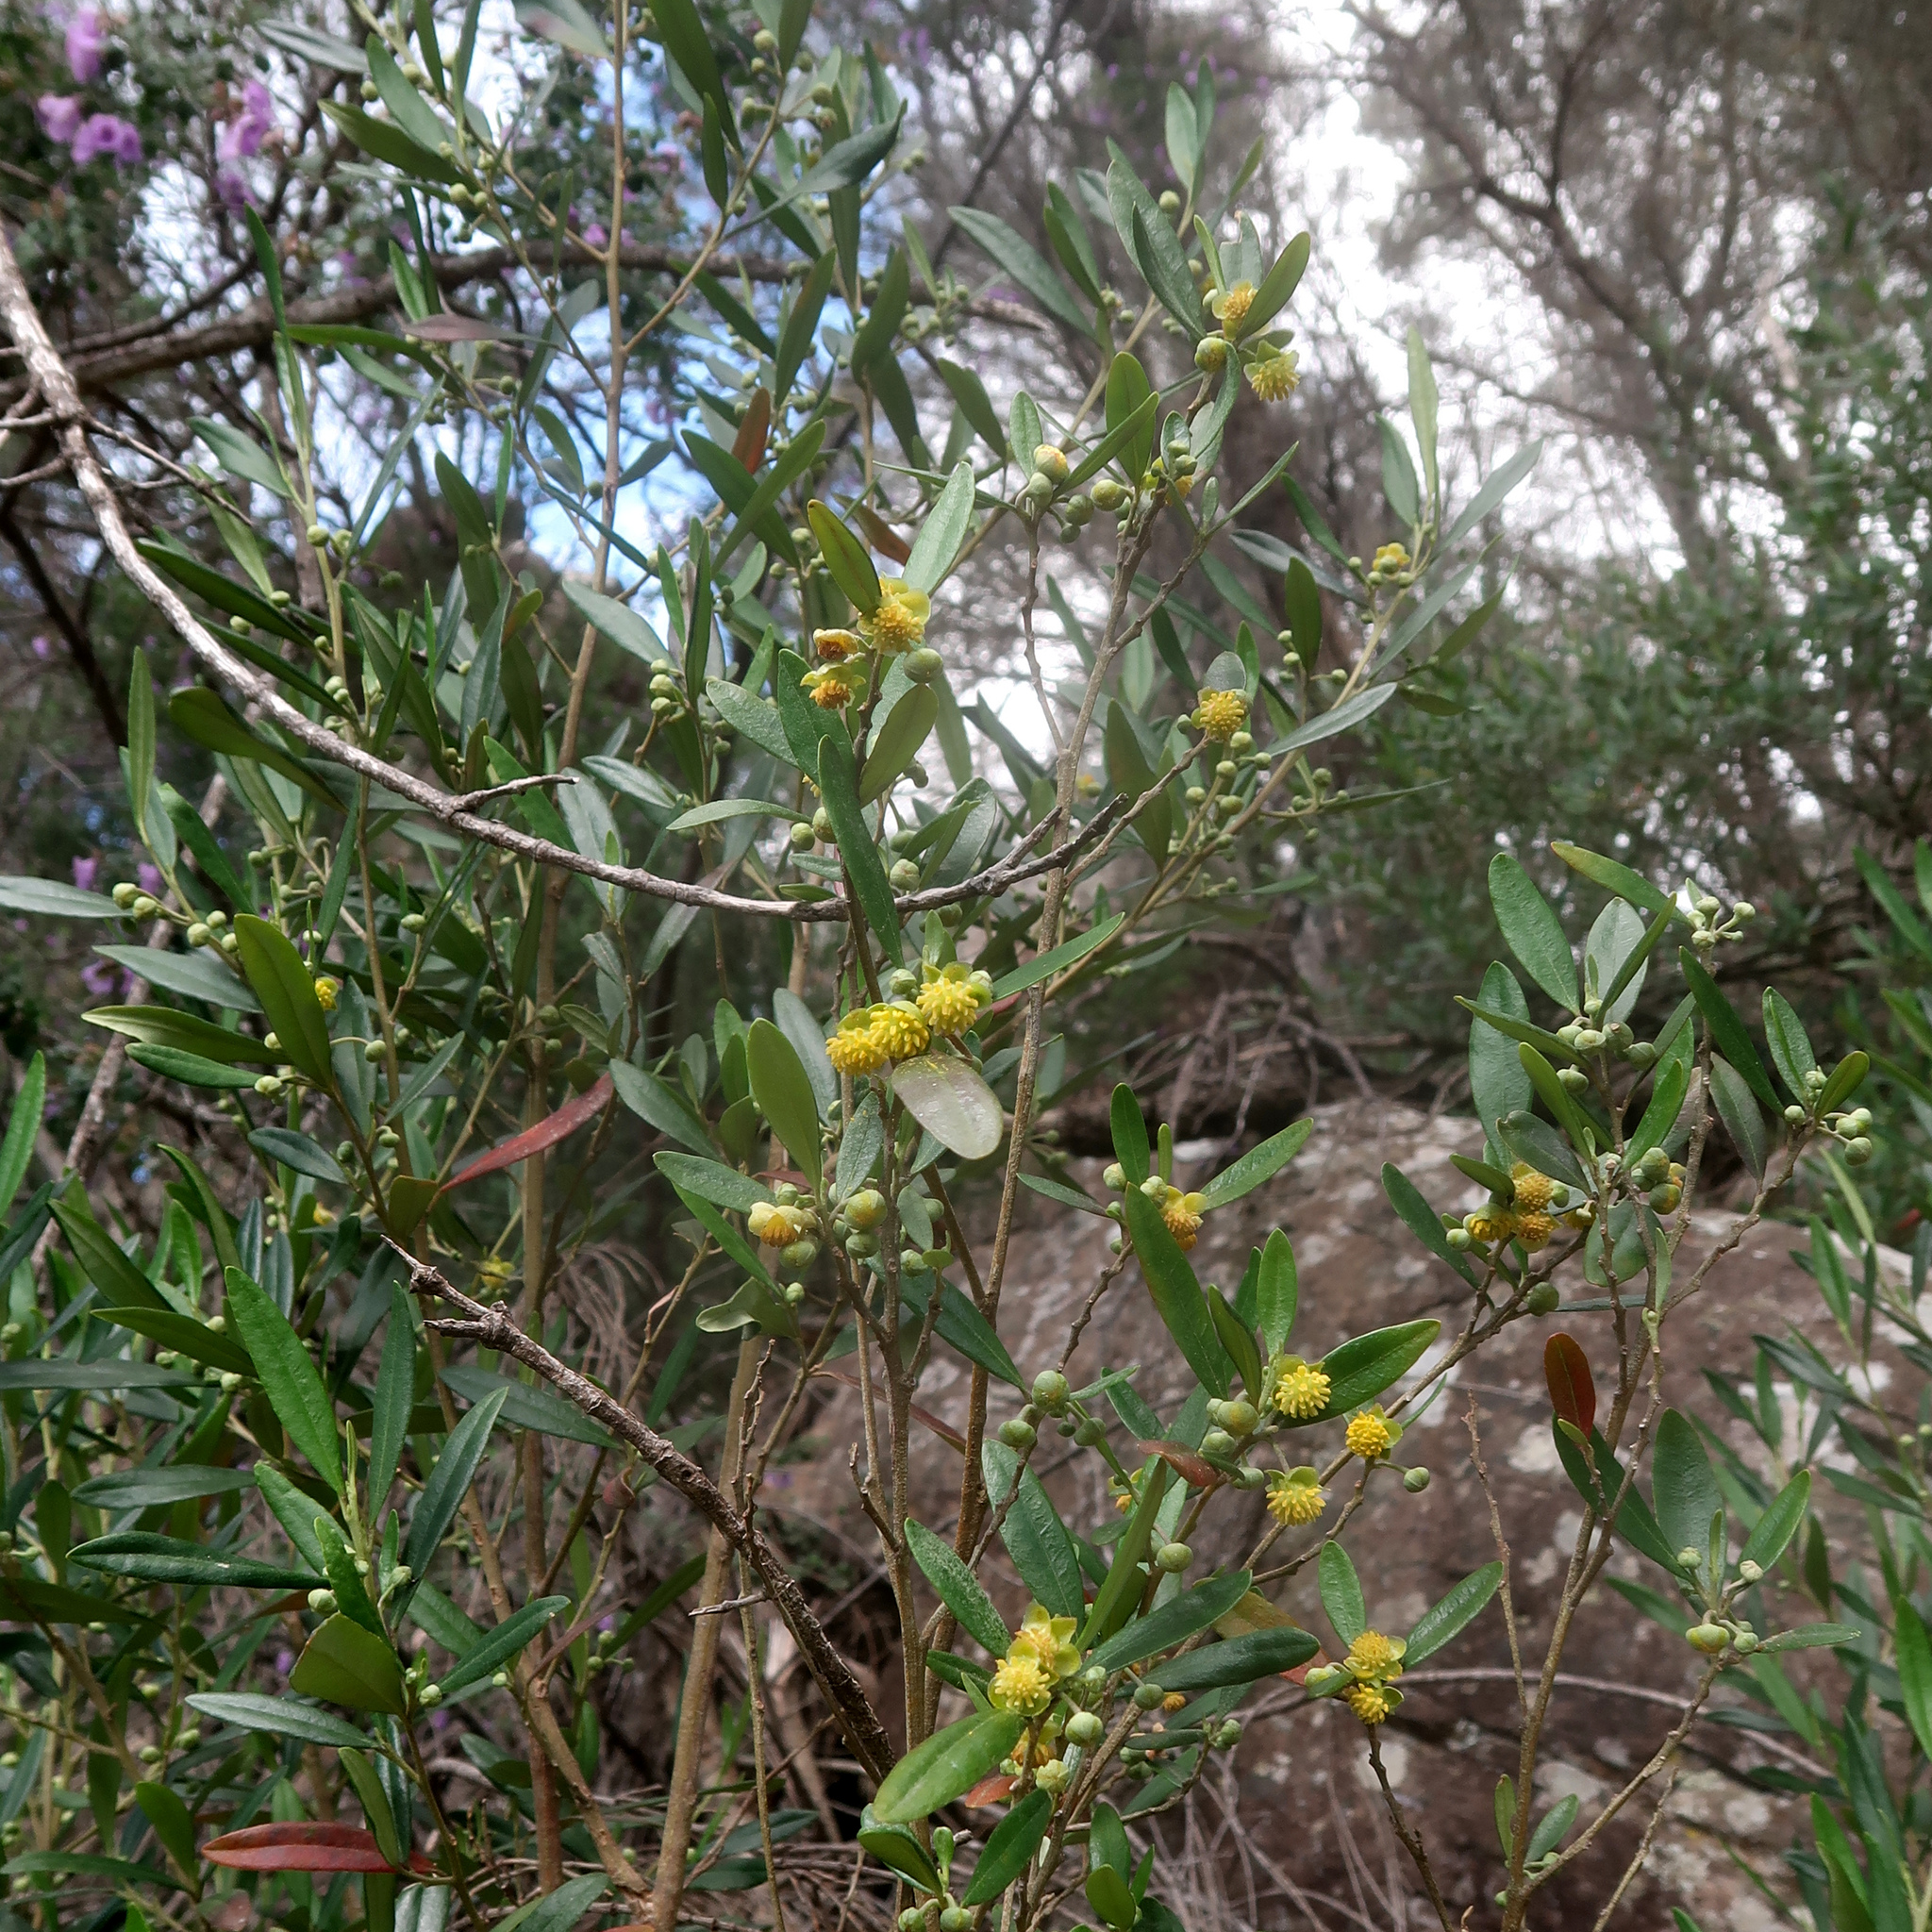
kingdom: Plantae
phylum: Tracheophyta
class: Magnoliopsida
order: Malpighiales
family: Euphorbiaceae
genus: Beyeria
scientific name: Beyeria viscosa
